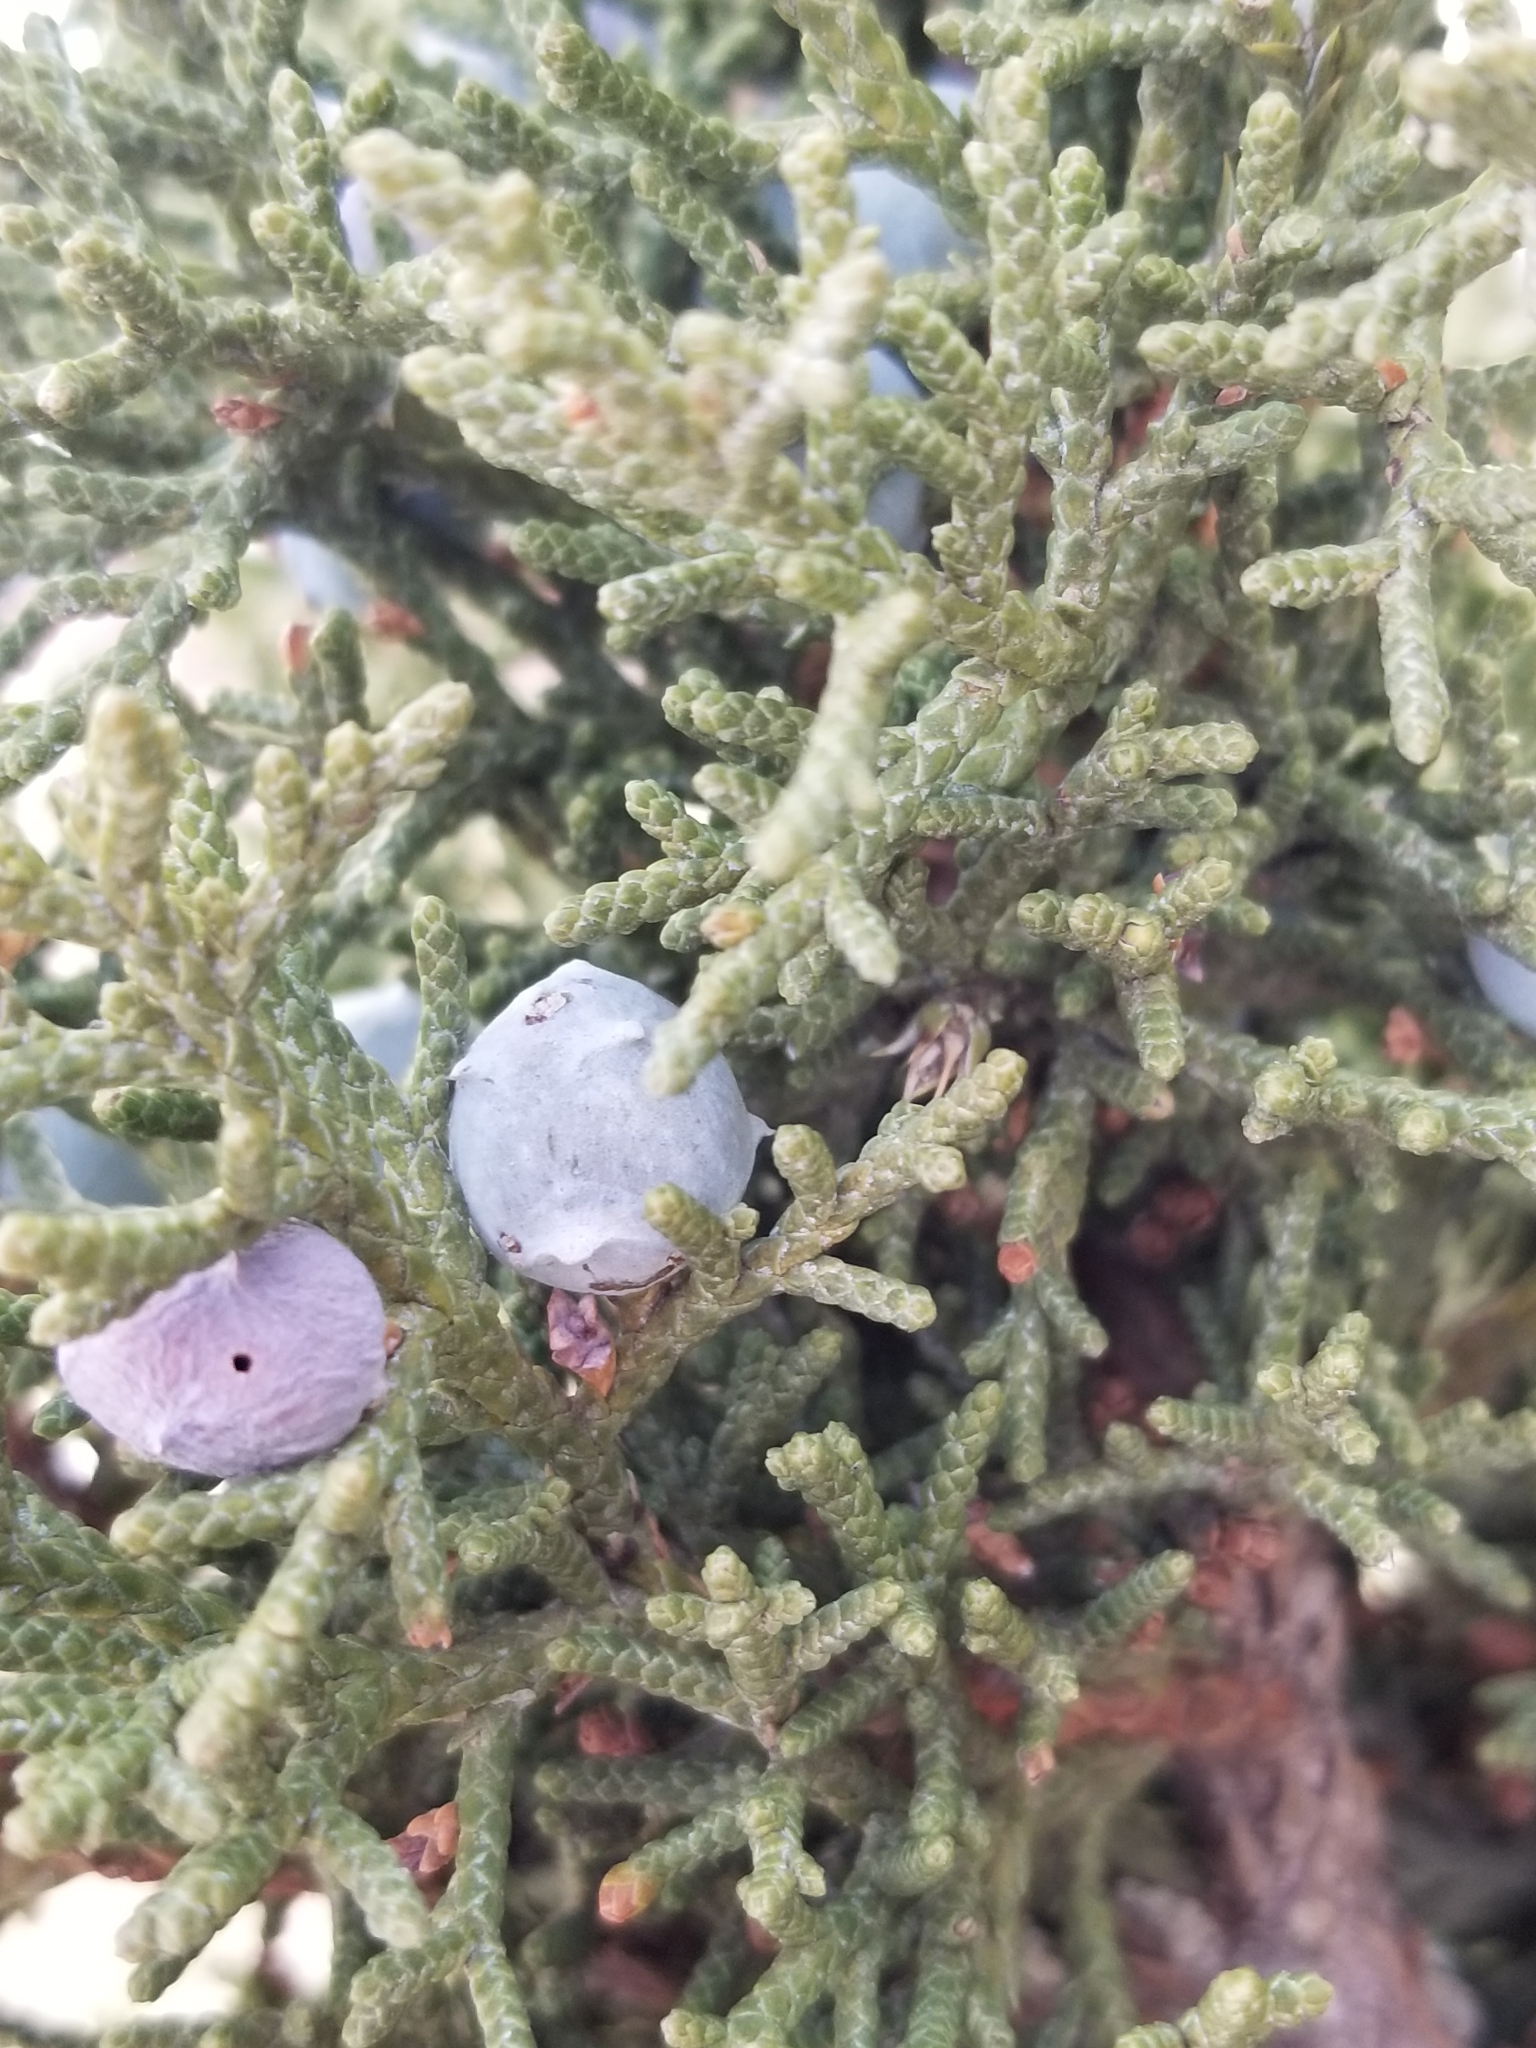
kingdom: Plantae
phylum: Tracheophyta
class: Pinopsida
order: Pinales
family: Cupressaceae
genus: Juniperus
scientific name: Juniperus osteosperma
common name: Utah juniper
